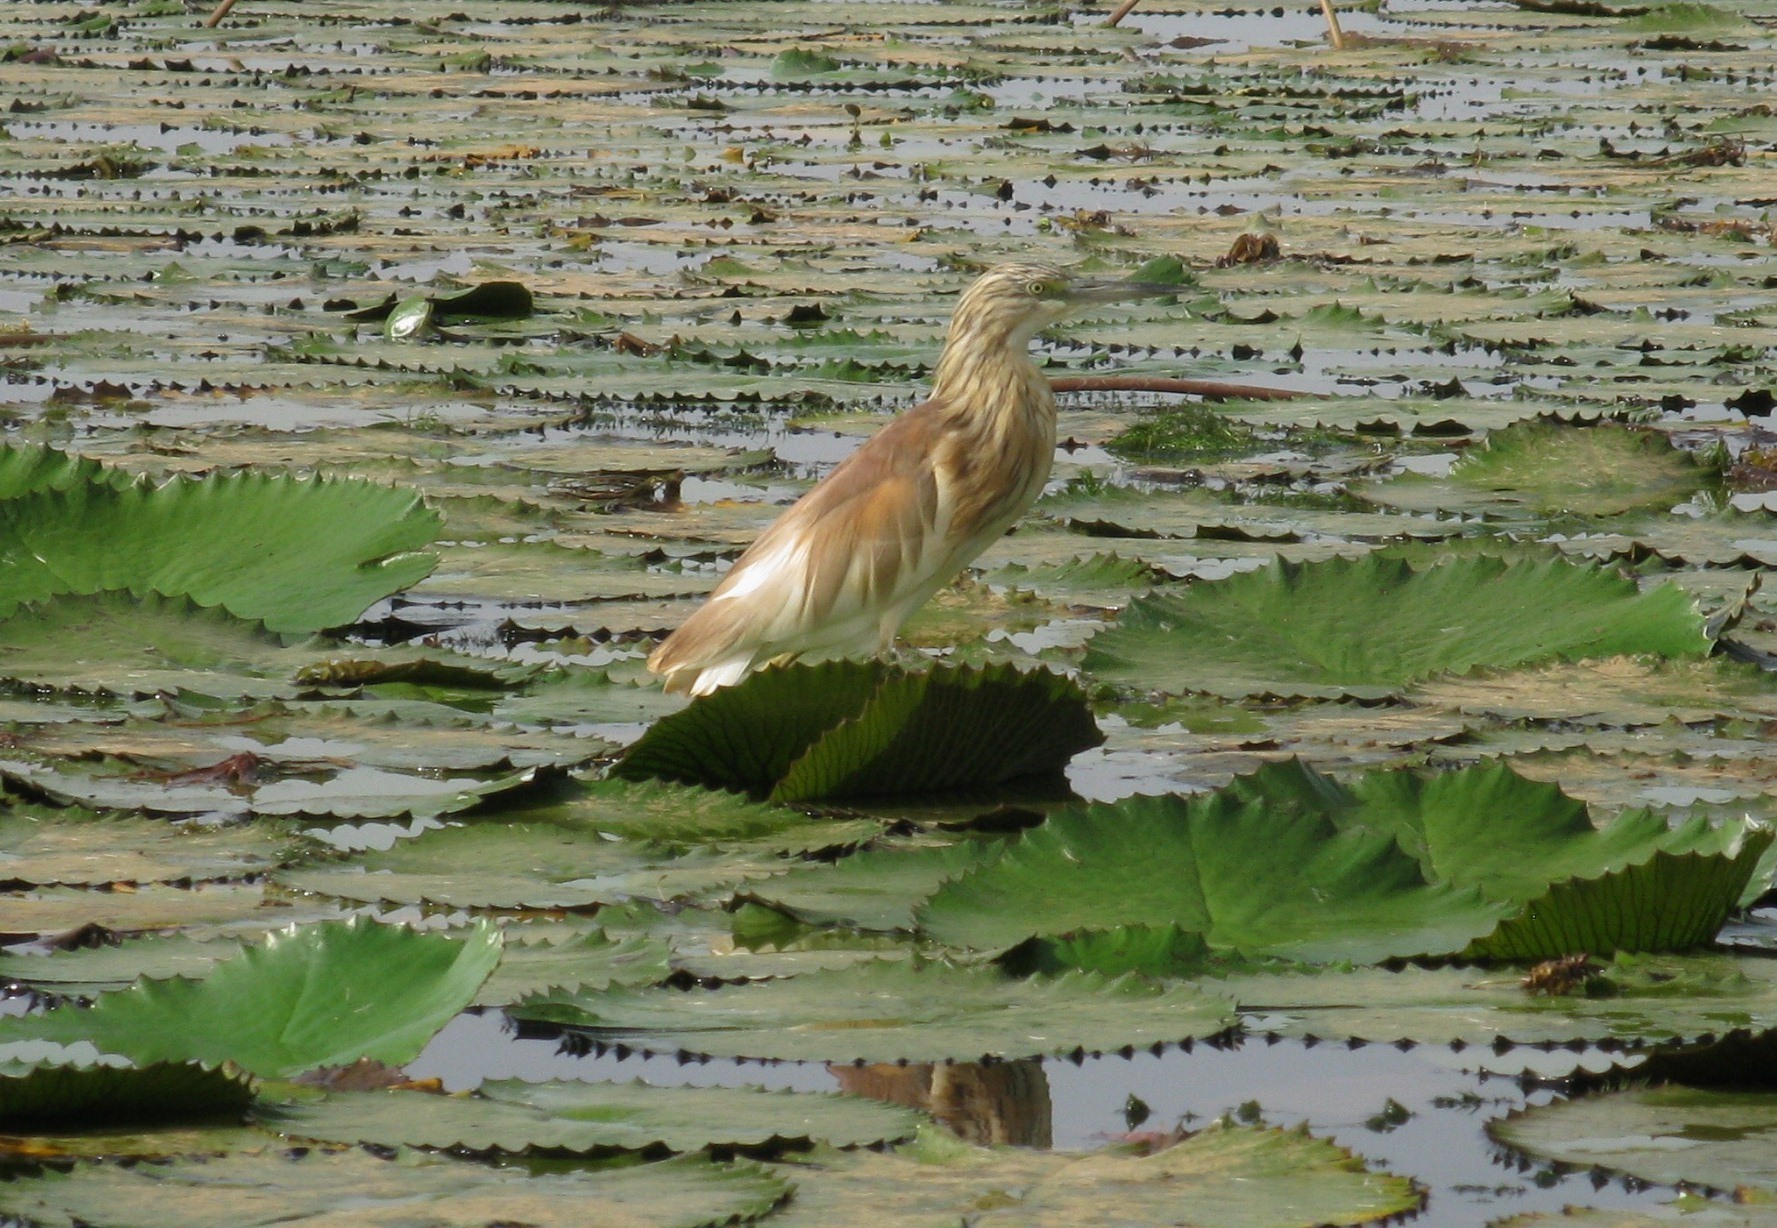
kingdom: Animalia
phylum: Chordata
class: Aves
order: Pelecaniformes
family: Ardeidae
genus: Ardeola
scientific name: Ardeola ralloides
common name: Squacco heron
